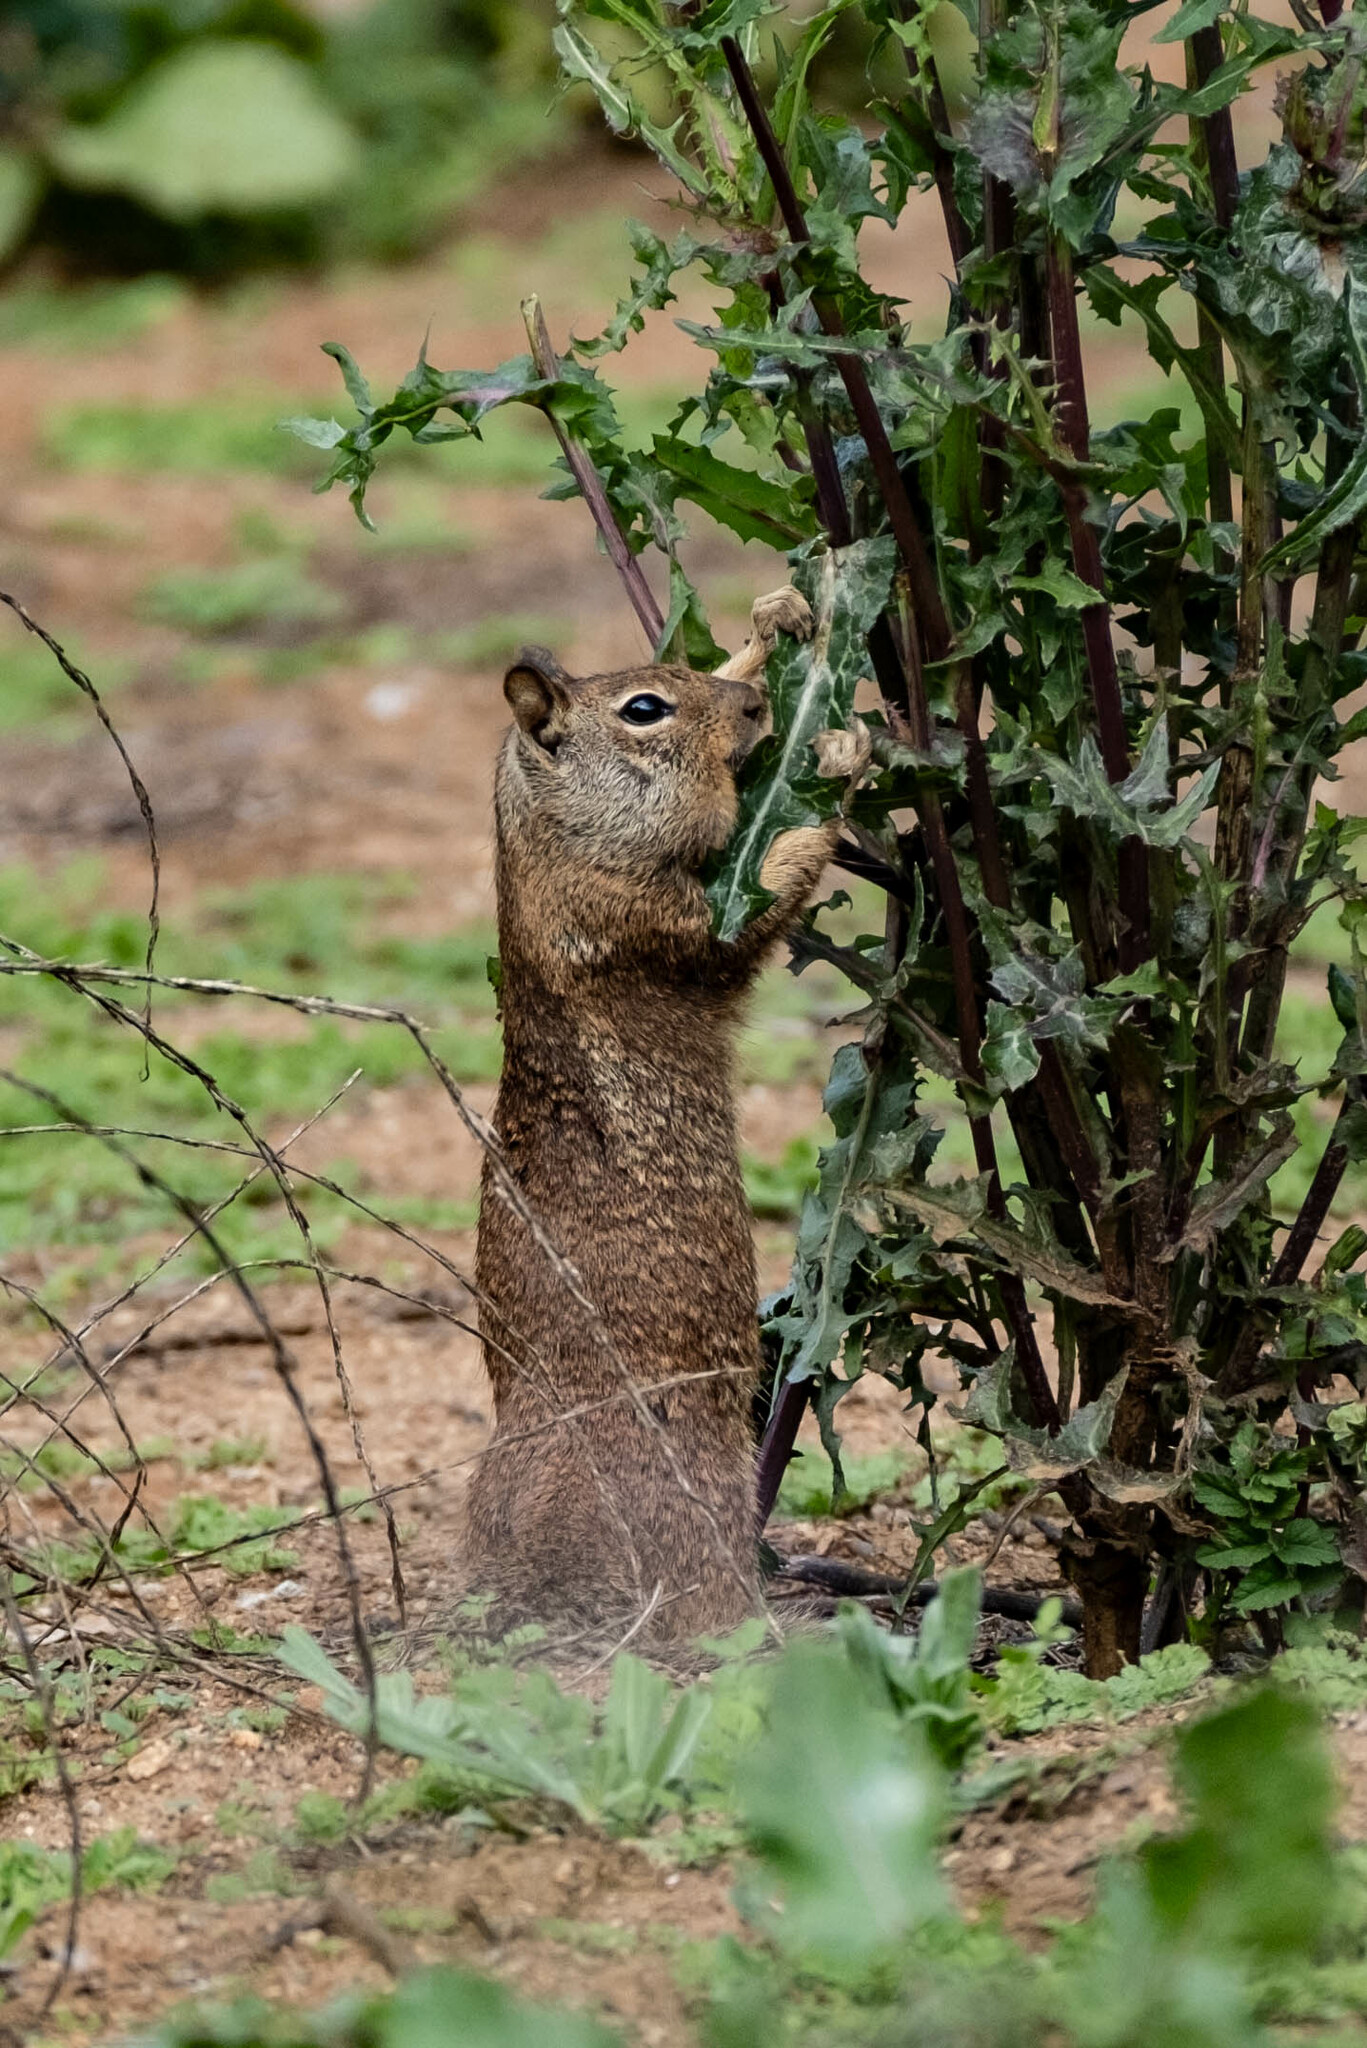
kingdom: Animalia
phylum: Chordata
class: Mammalia
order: Rodentia
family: Sciuridae
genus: Otospermophilus
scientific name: Otospermophilus beecheyi
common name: California ground squirrel
